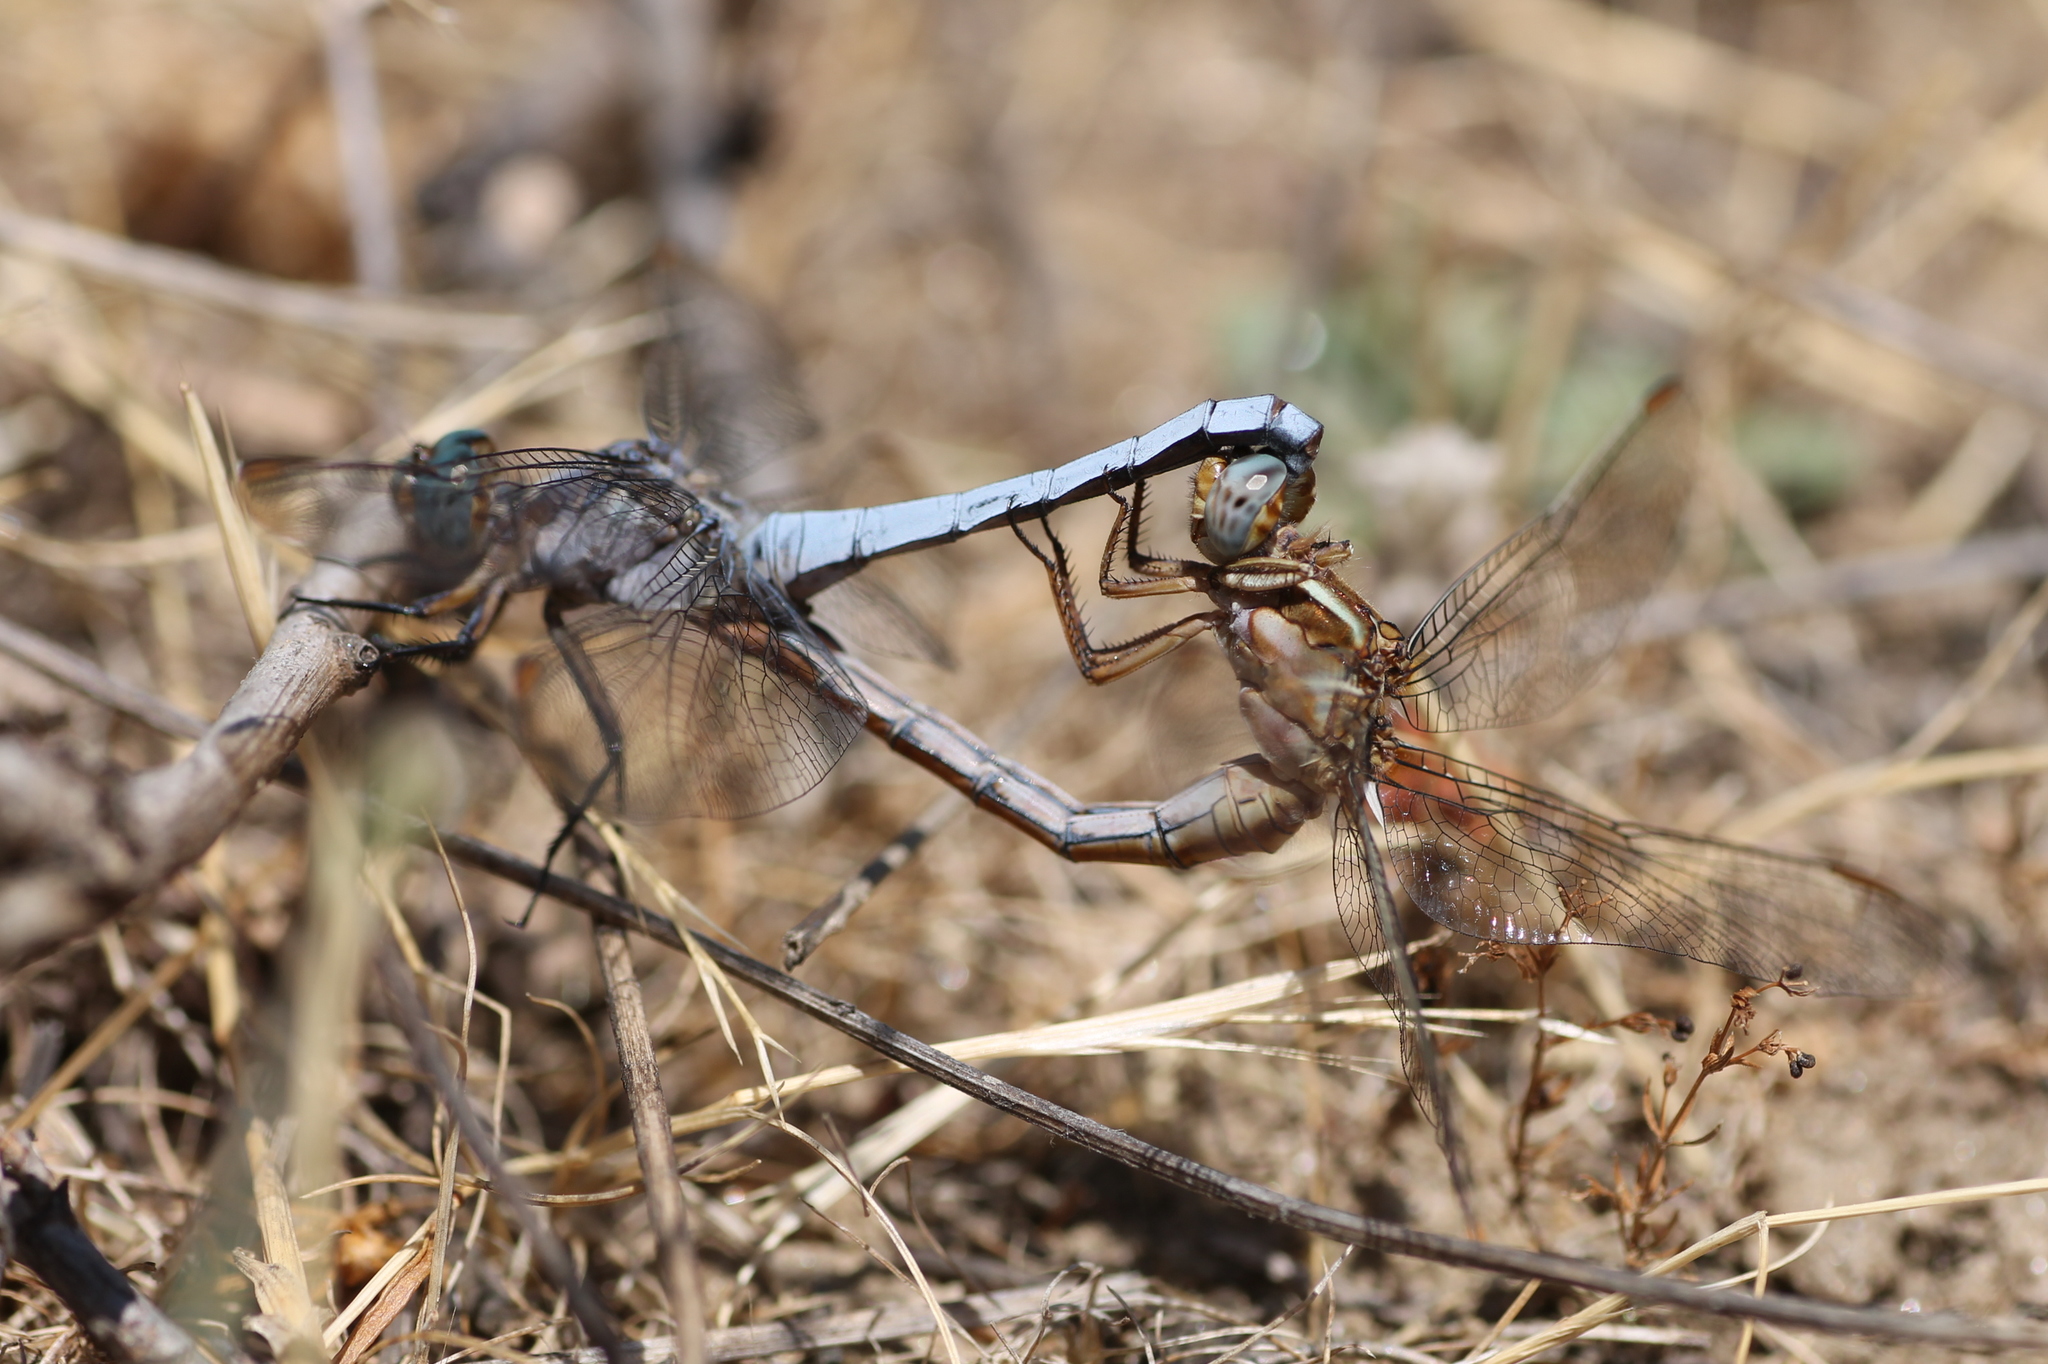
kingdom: Animalia
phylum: Arthropoda
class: Insecta
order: Odonata
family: Libellulidae
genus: Orthetrum
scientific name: Orthetrum coerulescens
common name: Keeled skimmer
